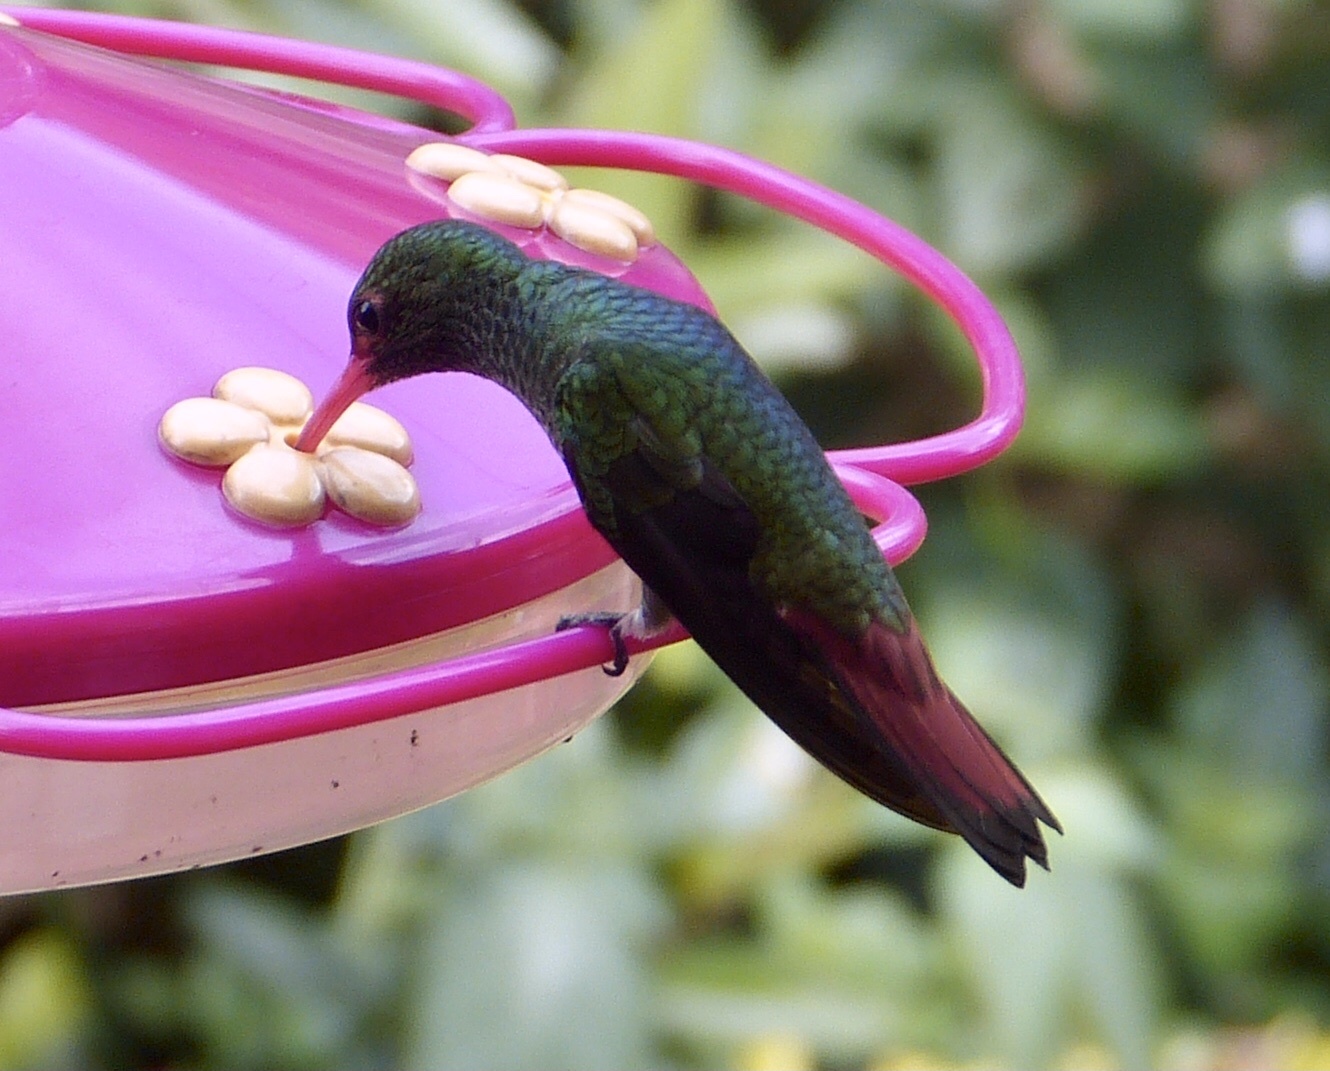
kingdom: Animalia
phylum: Chordata
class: Aves
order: Apodiformes
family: Trochilidae
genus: Amazilia
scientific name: Amazilia tzacatl
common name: Rufous-tailed hummingbird
